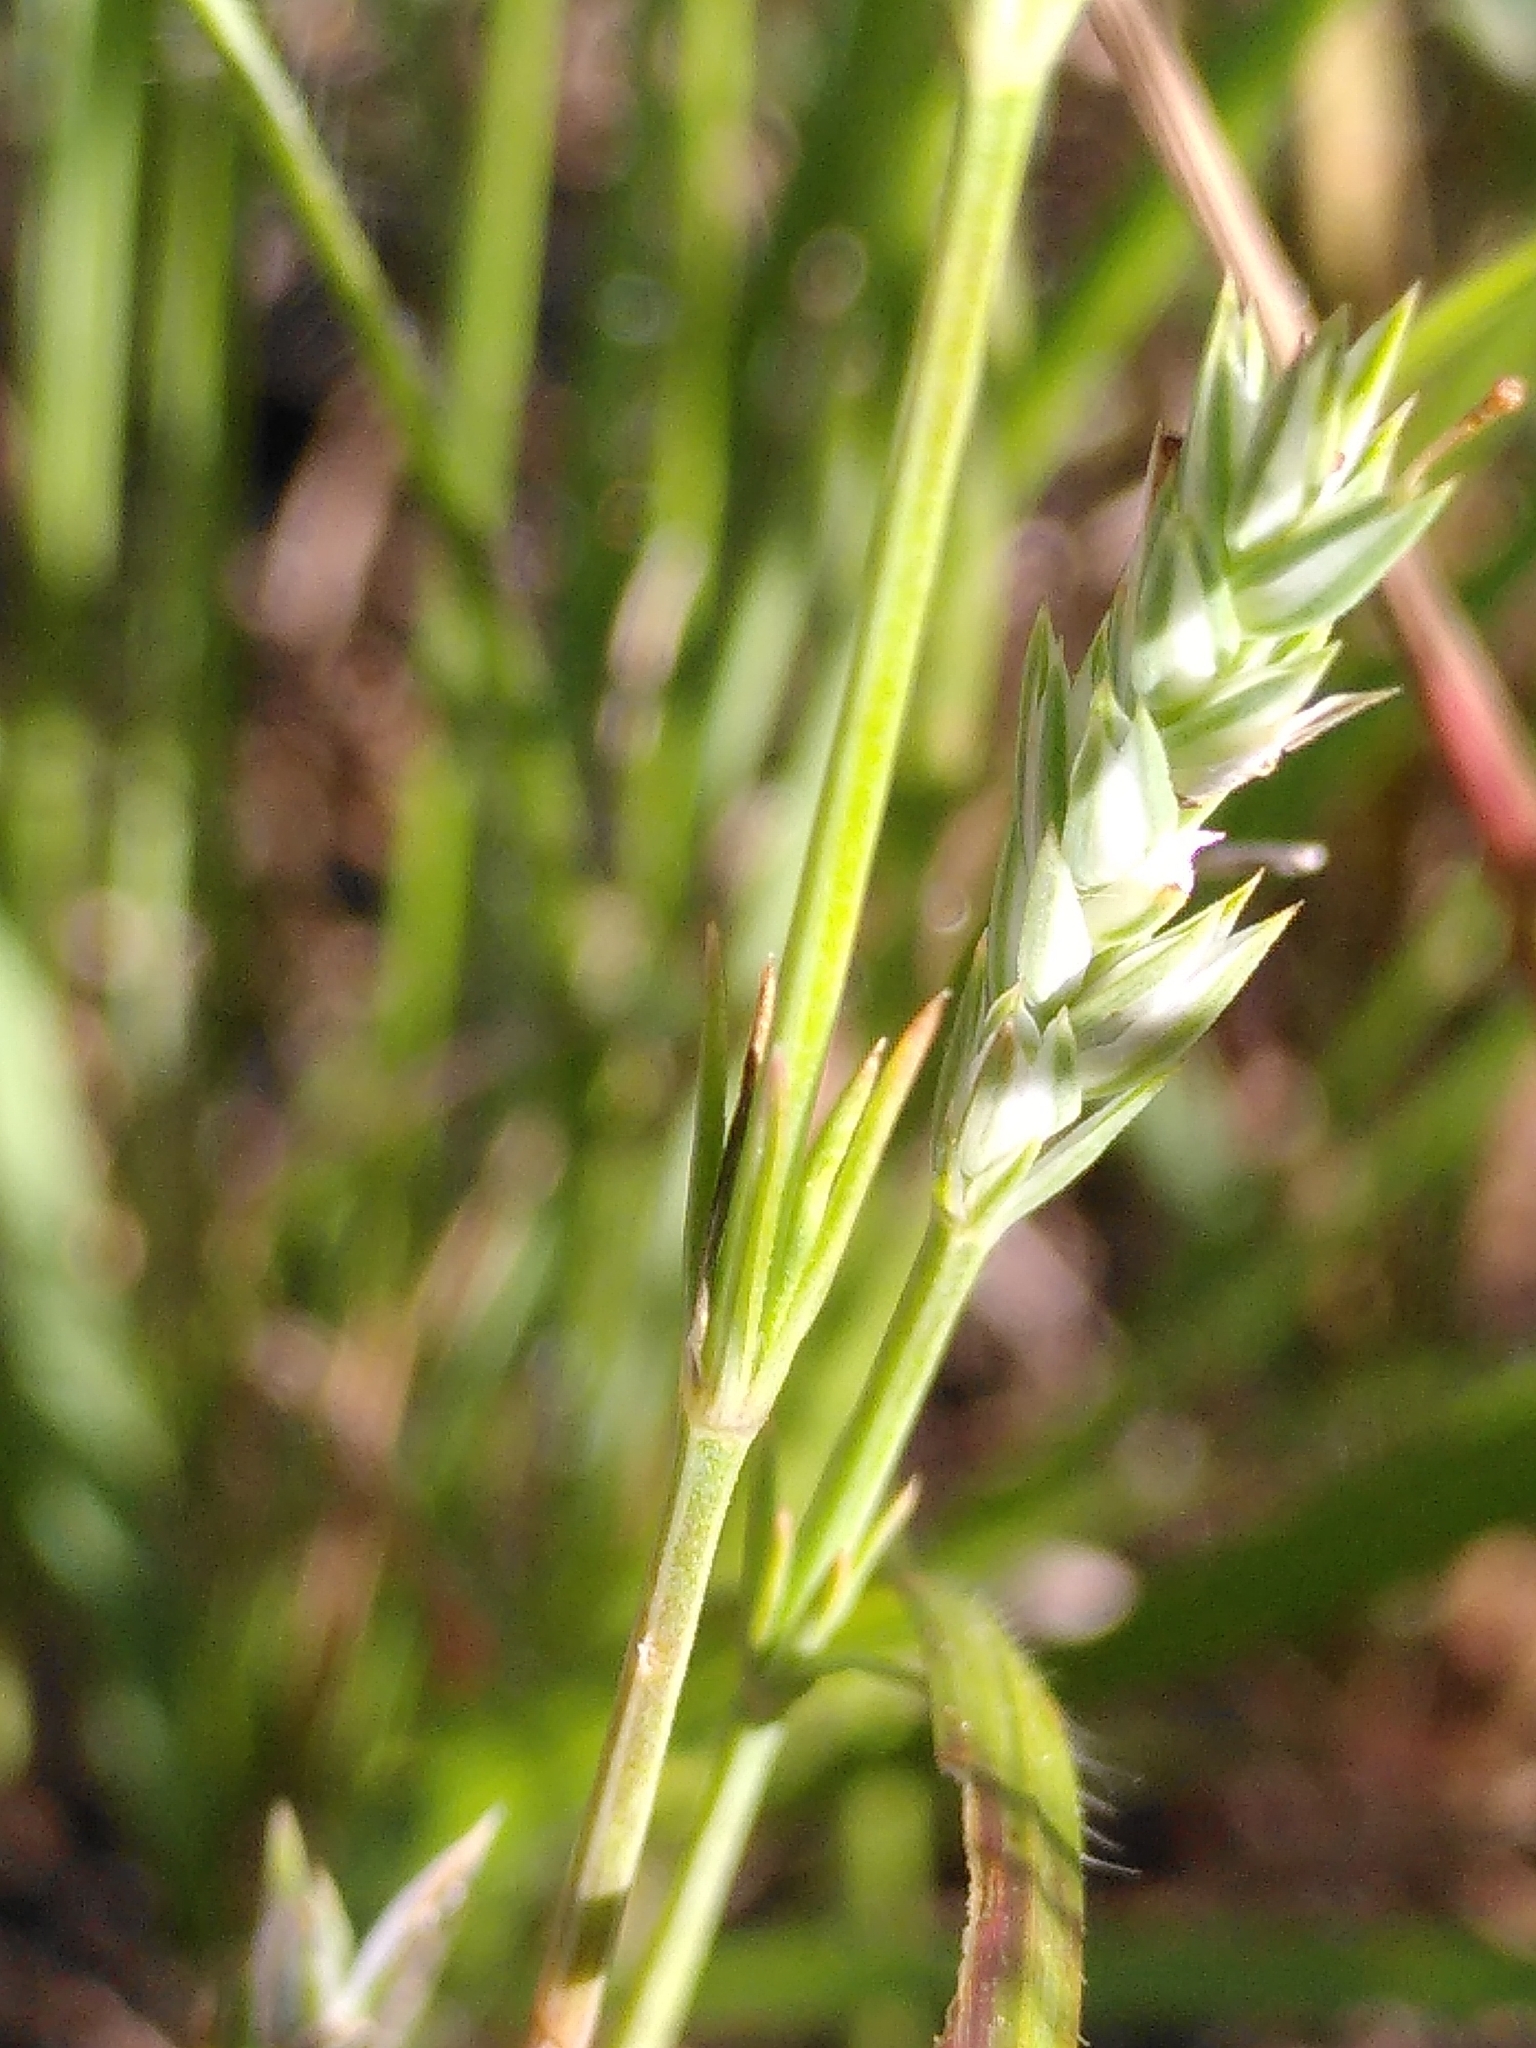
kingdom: Plantae
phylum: Tracheophyta
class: Magnoliopsida
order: Gentianales
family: Rubiaceae
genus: Crucianella
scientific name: Crucianella angustifolia
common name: Narrowleaf crucianella
